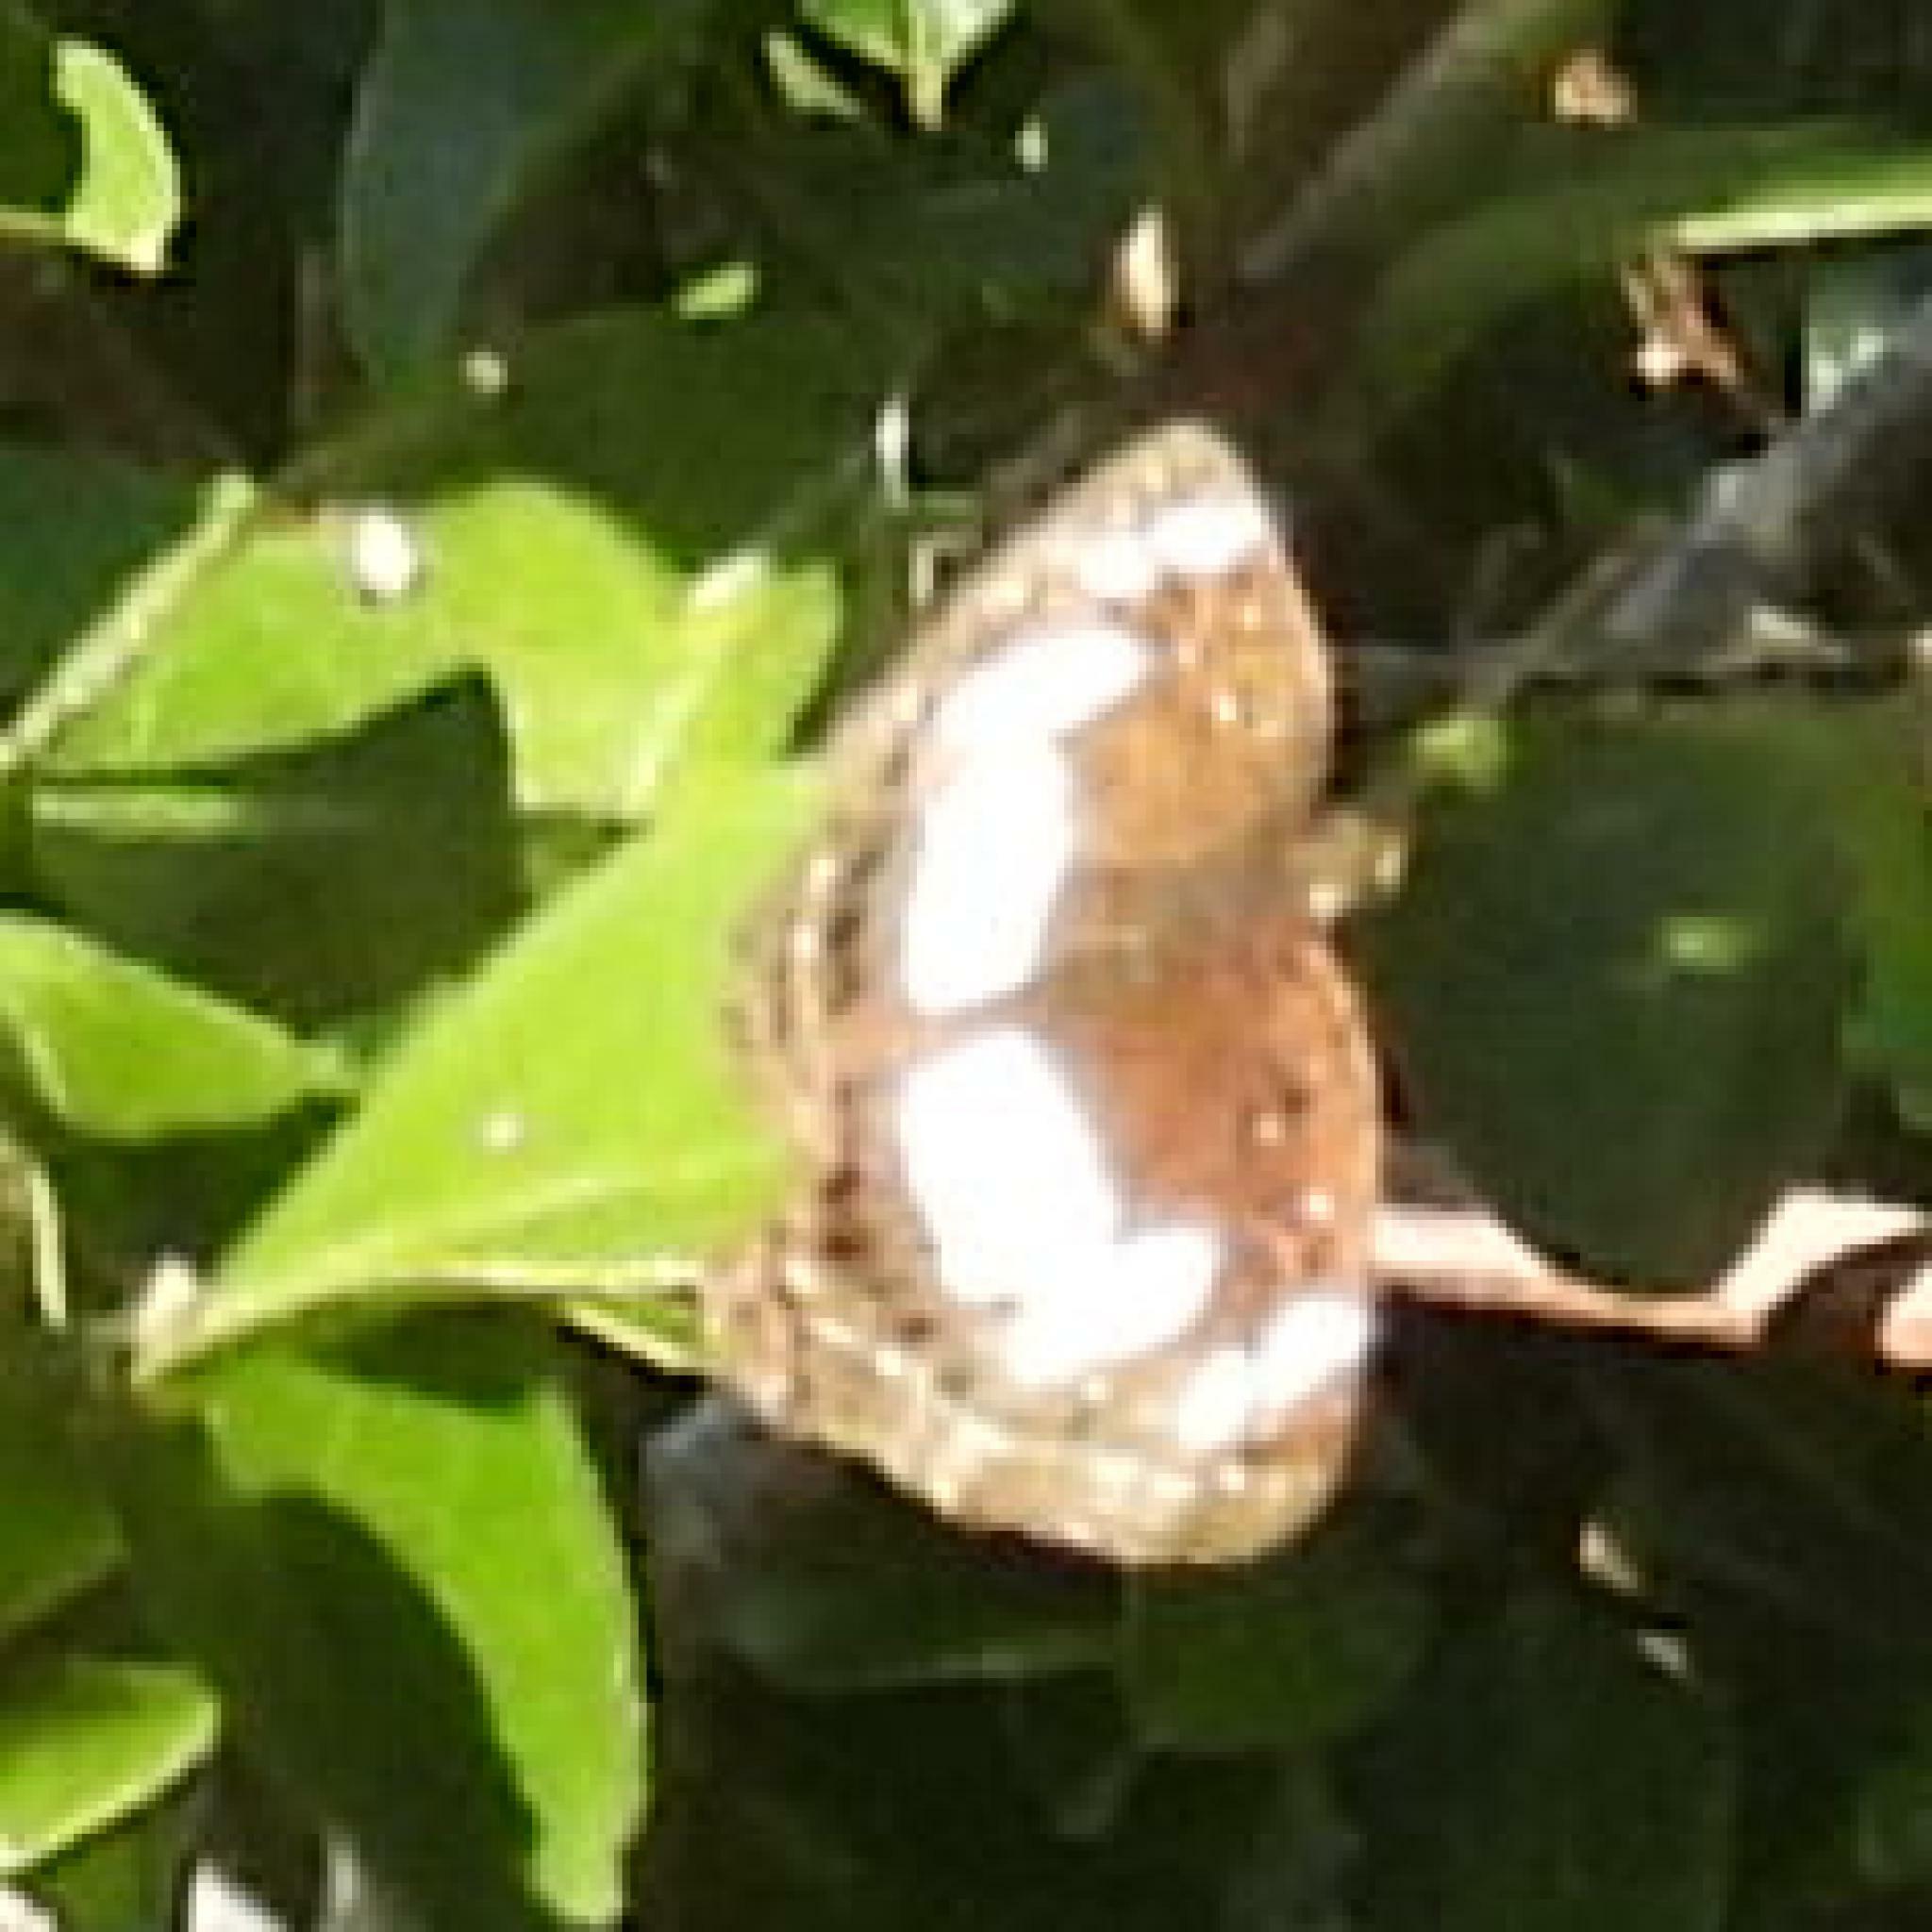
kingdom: Animalia
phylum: Arthropoda
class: Insecta
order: Lepidoptera
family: Nymphalidae
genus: Neptis
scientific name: Neptis saclava
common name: Small spotted sailor
